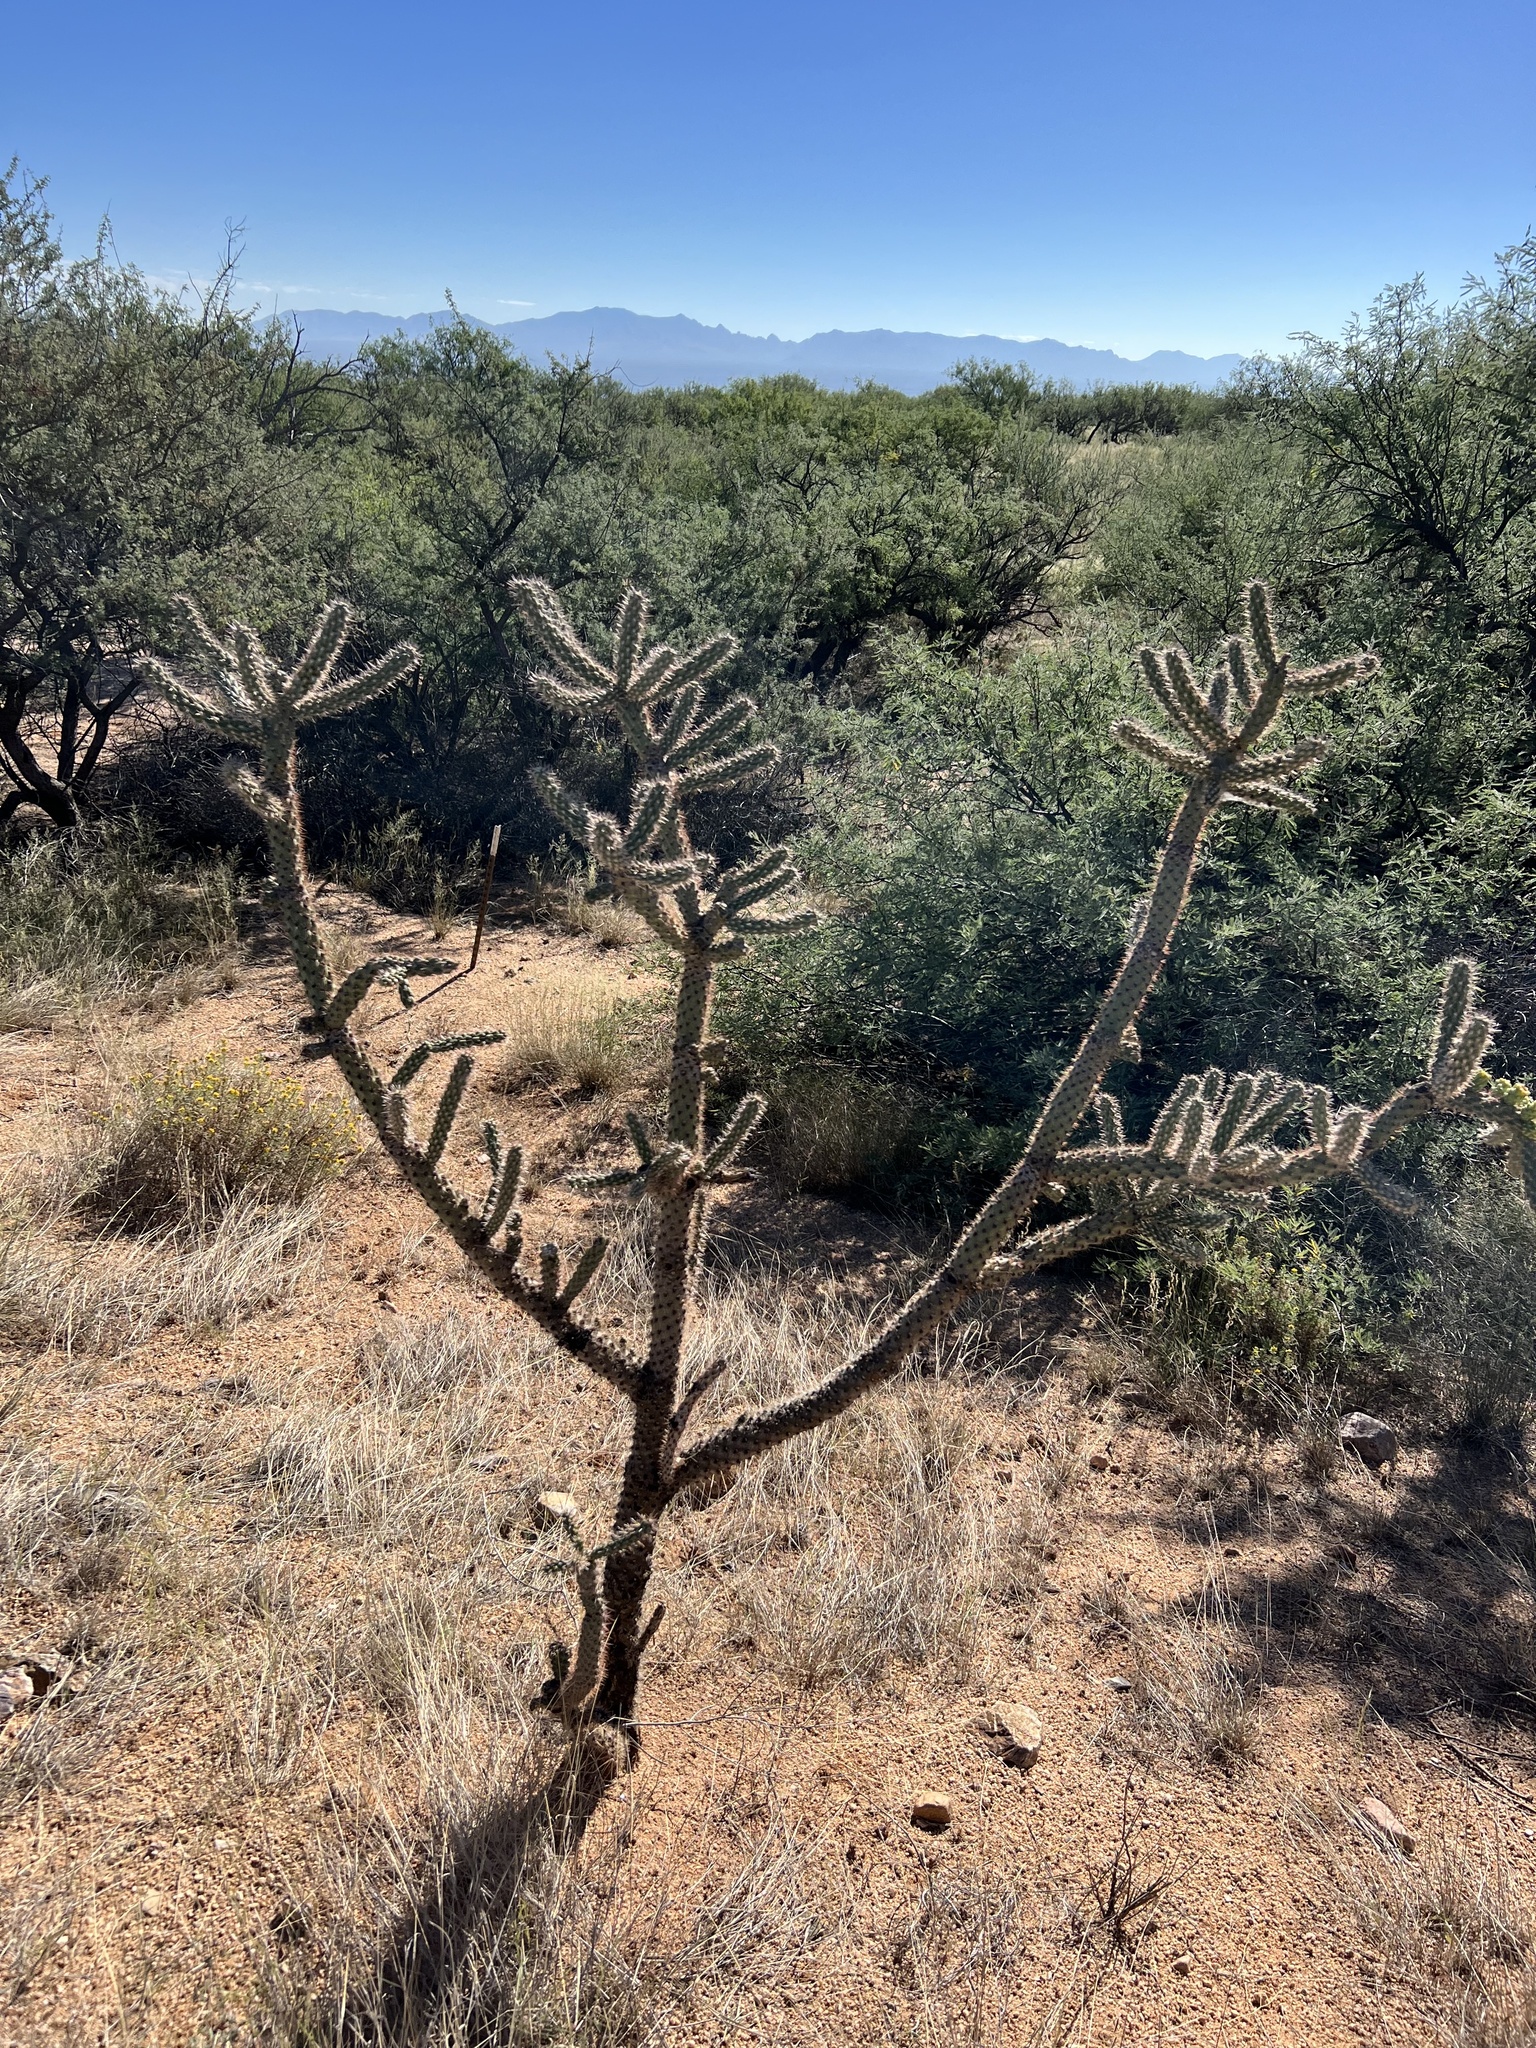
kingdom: Plantae
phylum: Tracheophyta
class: Magnoliopsida
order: Caryophyllales
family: Cactaceae
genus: Cylindropuntia
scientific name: Cylindropuntia imbricata
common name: Candelabrum cactus
